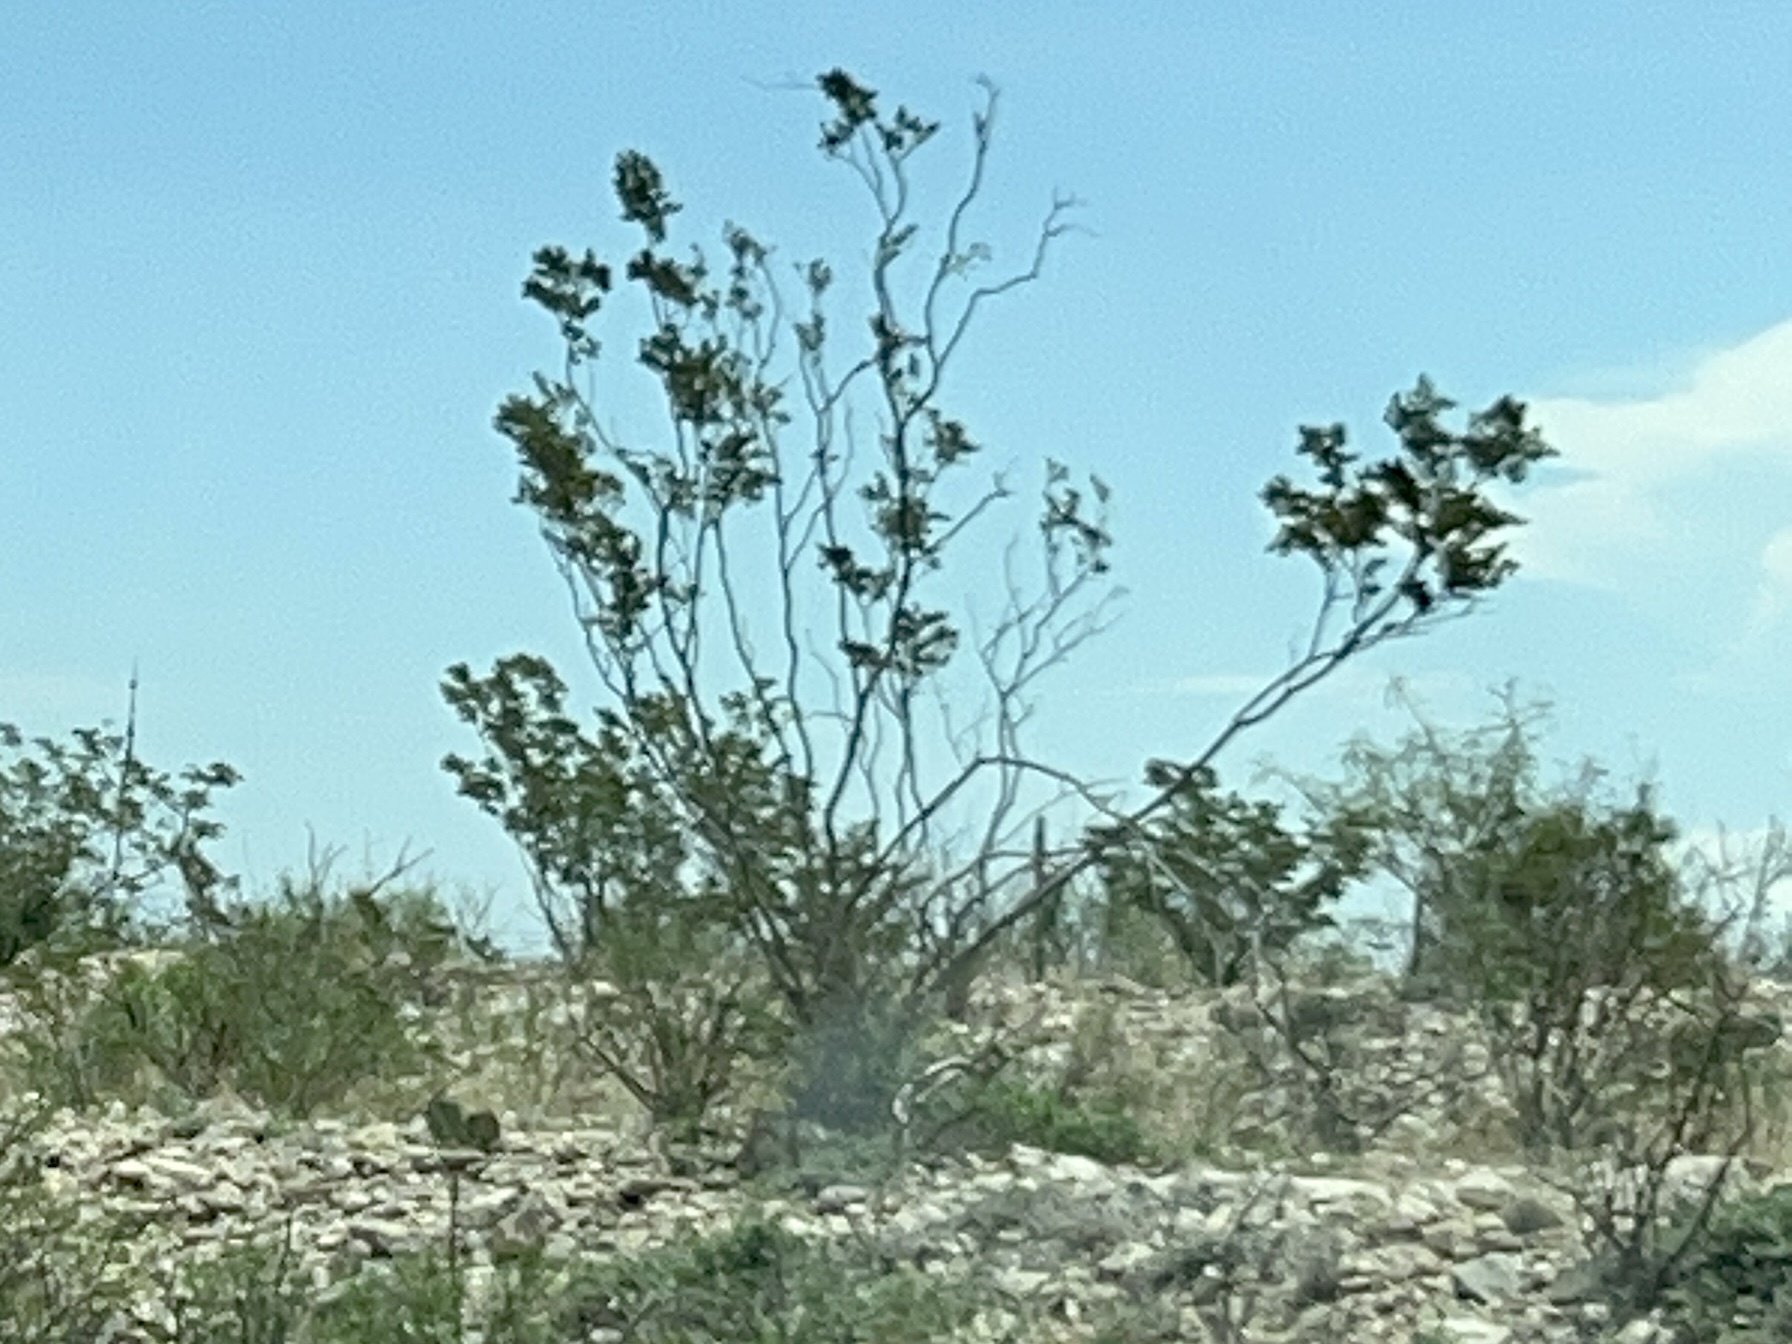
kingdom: Plantae
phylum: Tracheophyta
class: Magnoliopsida
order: Zygophyllales
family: Zygophyllaceae
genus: Larrea
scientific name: Larrea tridentata
